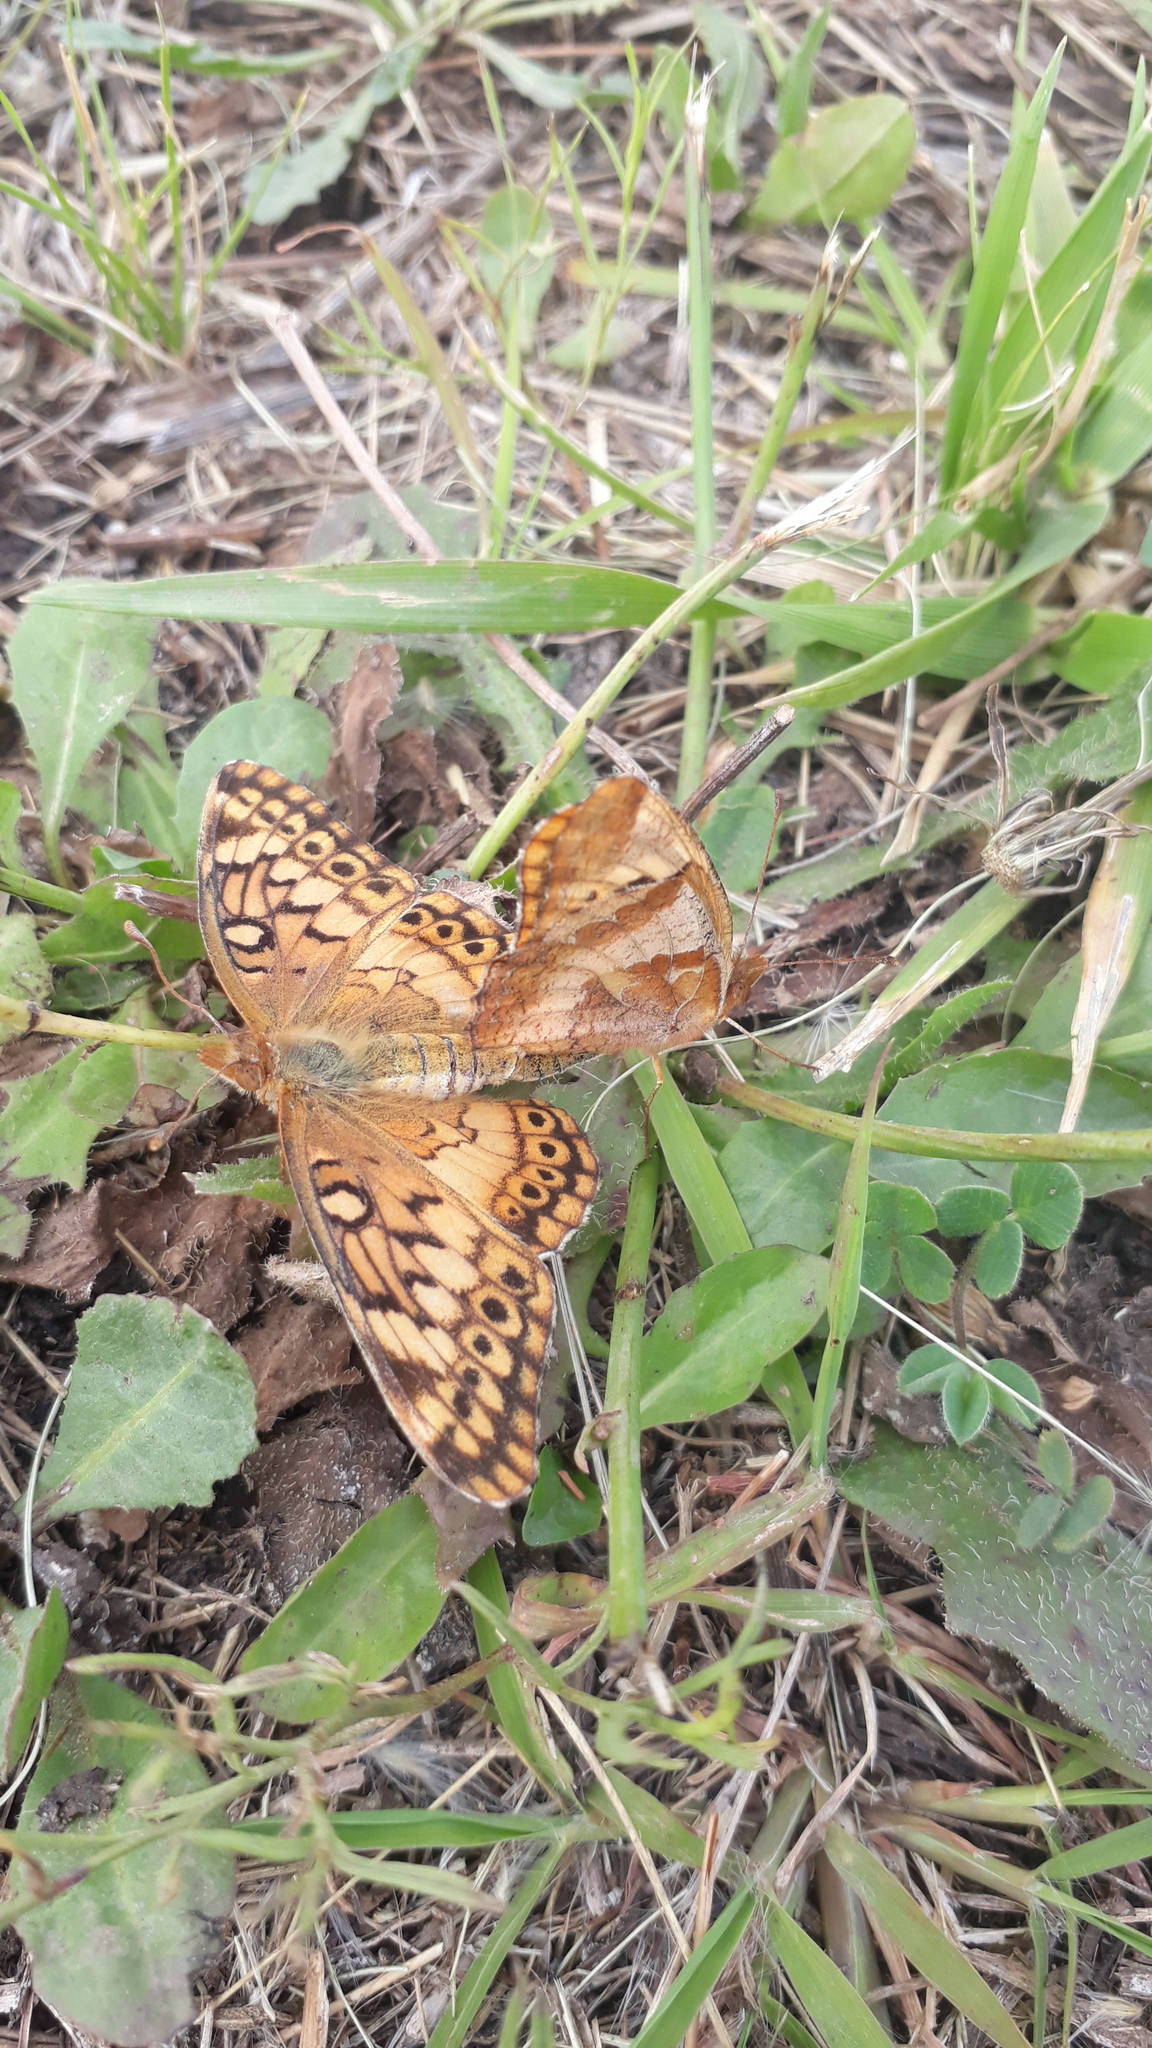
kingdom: Animalia
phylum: Arthropoda
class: Insecta
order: Lepidoptera
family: Nymphalidae
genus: Euptoieta
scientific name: Euptoieta hortensia
